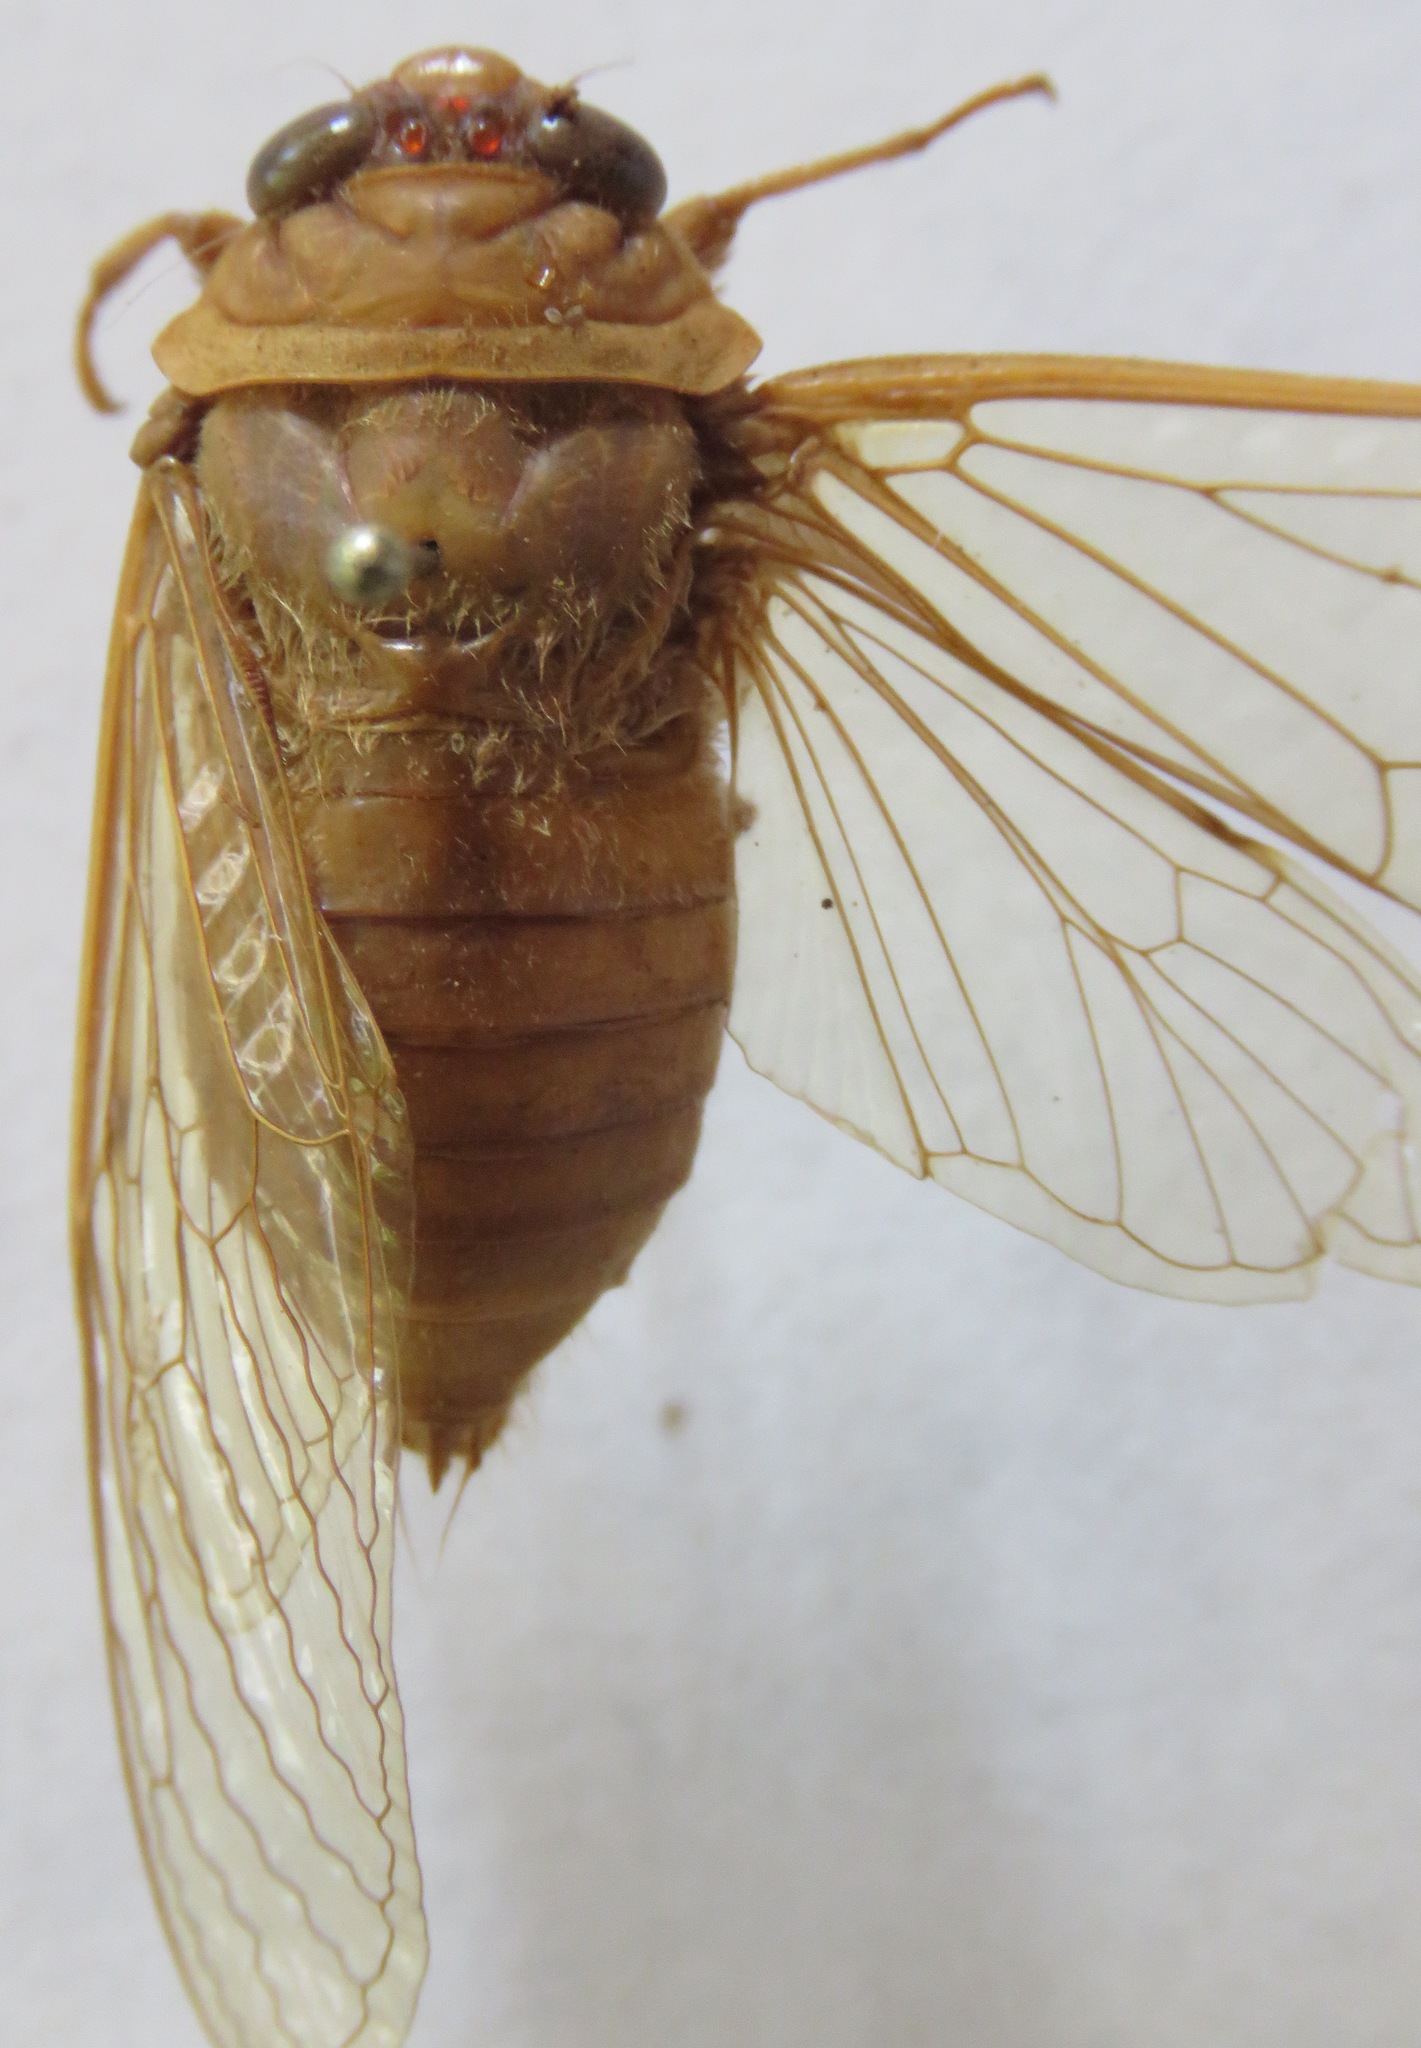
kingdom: Animalia
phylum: Arthropoda
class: Insecta
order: Hemiptera
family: Cicadidae
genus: Carineta
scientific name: Carineta viridicata
